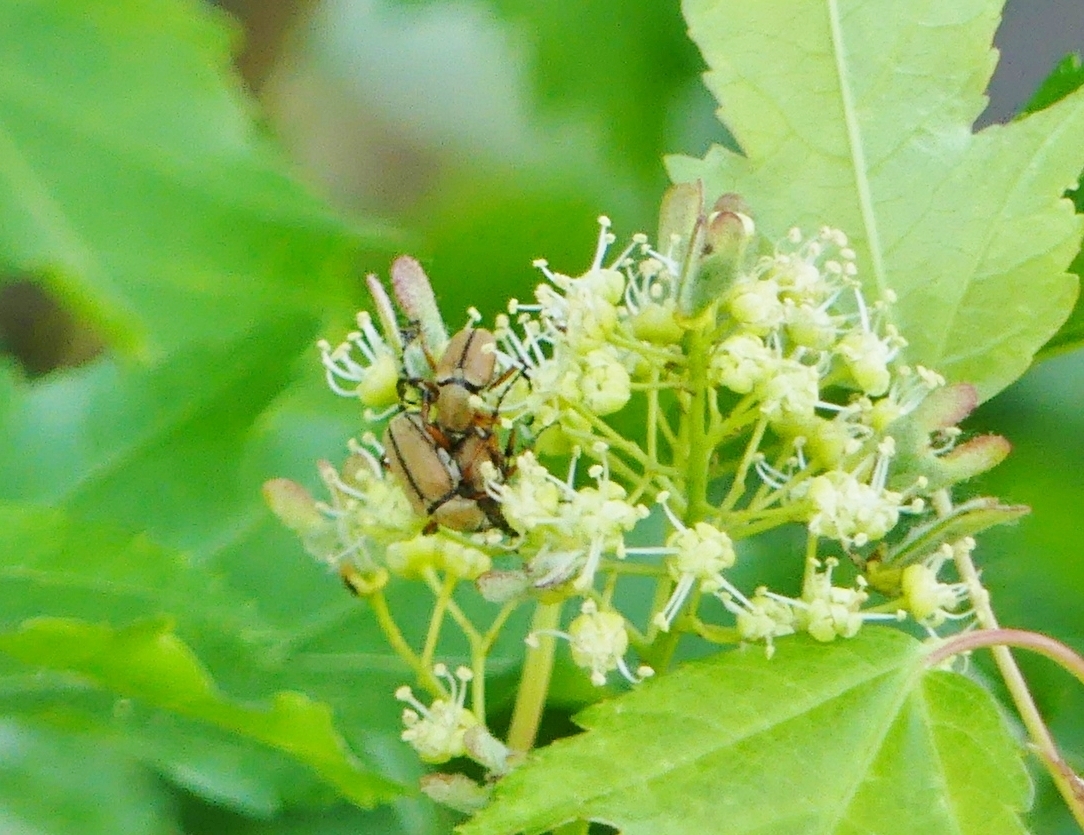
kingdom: Animalia
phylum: Arthropoda
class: Insecta
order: Coleoptera
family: Scarabaeidae
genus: Macrodactylus
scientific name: Macrodactylus subspinosus
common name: American rose chafer
